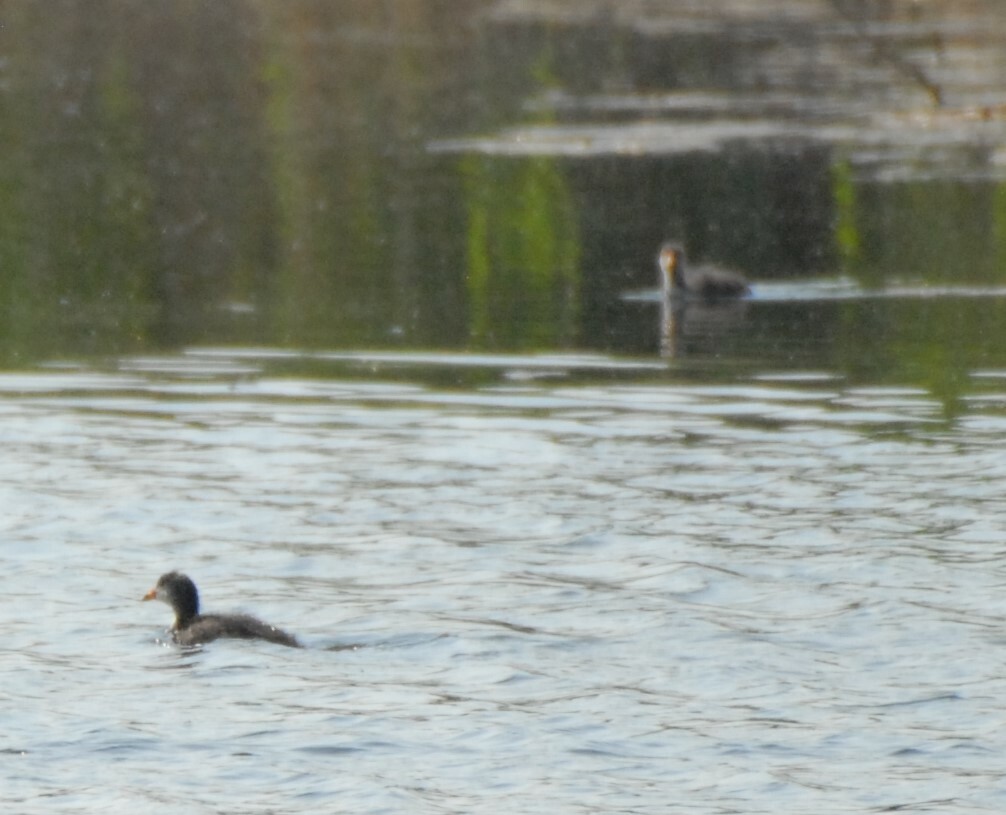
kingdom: Animalia
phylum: Chordata
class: Aves
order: Gruiformes
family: Rallidae
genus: Fulica
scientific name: Fulica atra
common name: Eurasian coot
